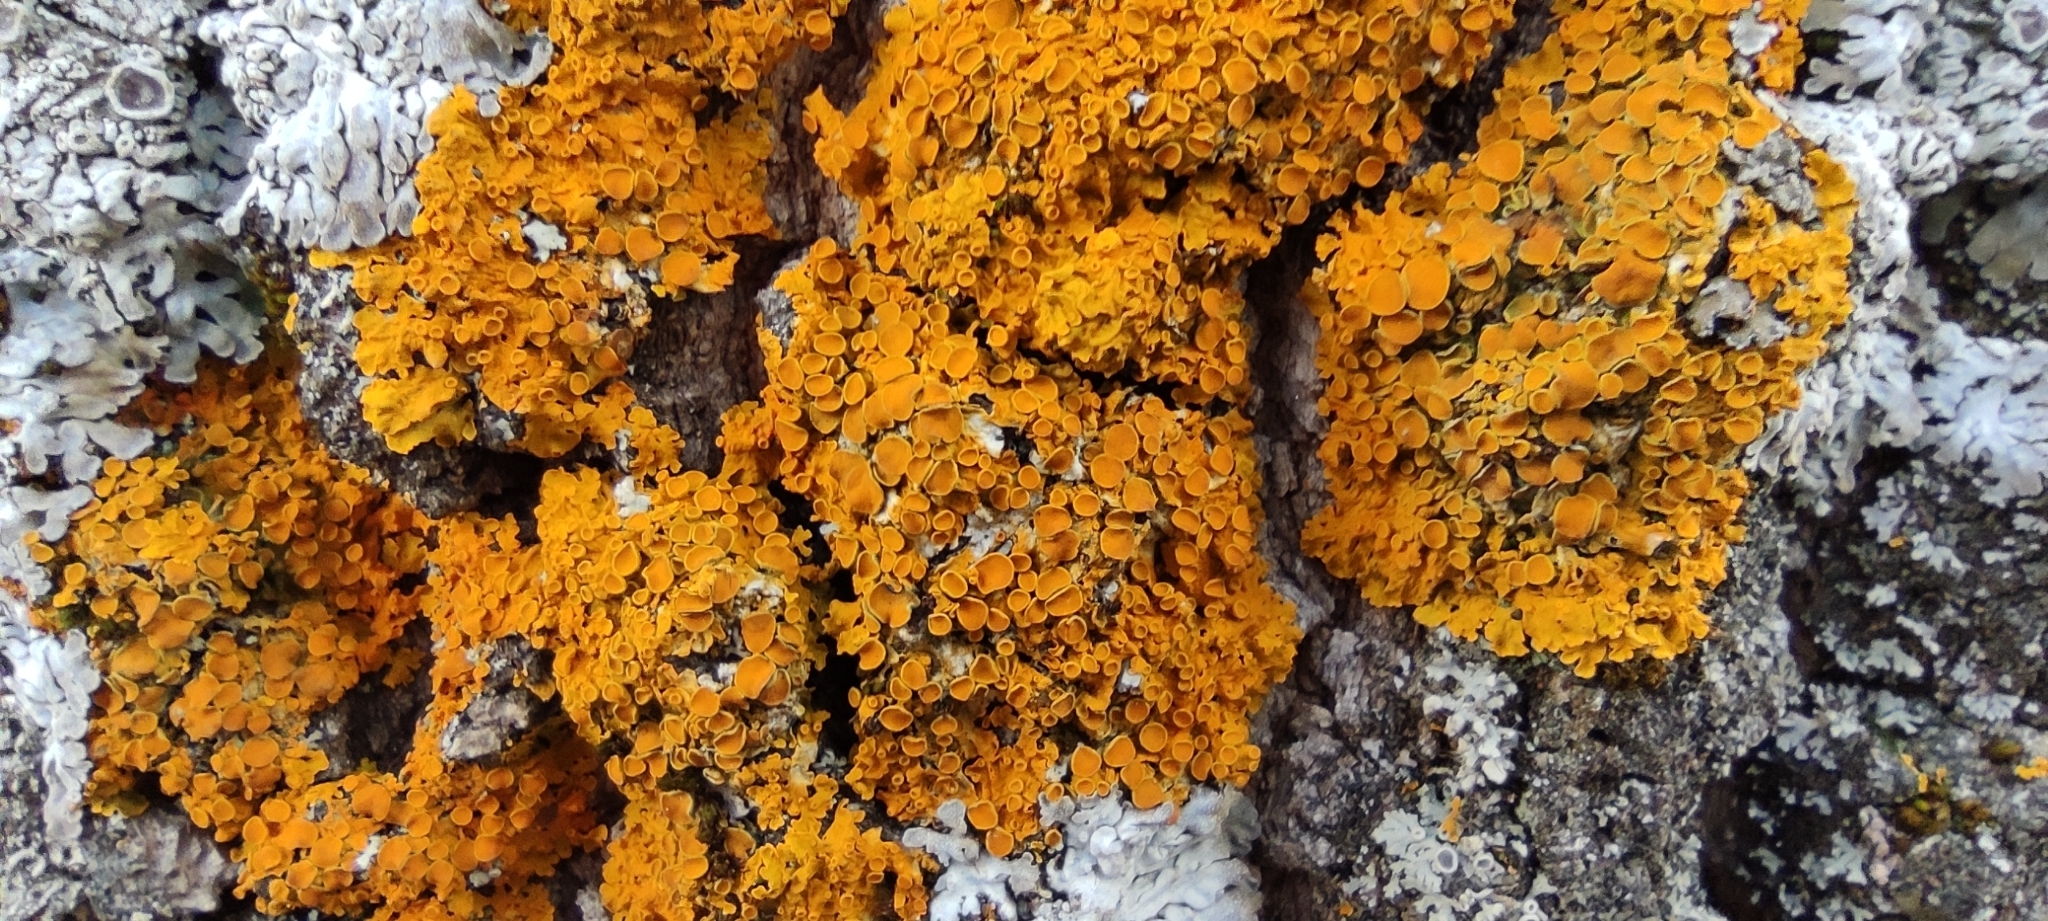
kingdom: Fungi
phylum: Ascomycota
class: Lecanoromycetes
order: Teloschistales
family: Teloschistaceae
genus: Xanthoria
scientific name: Xanthoria parietina
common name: Common orange lichen
